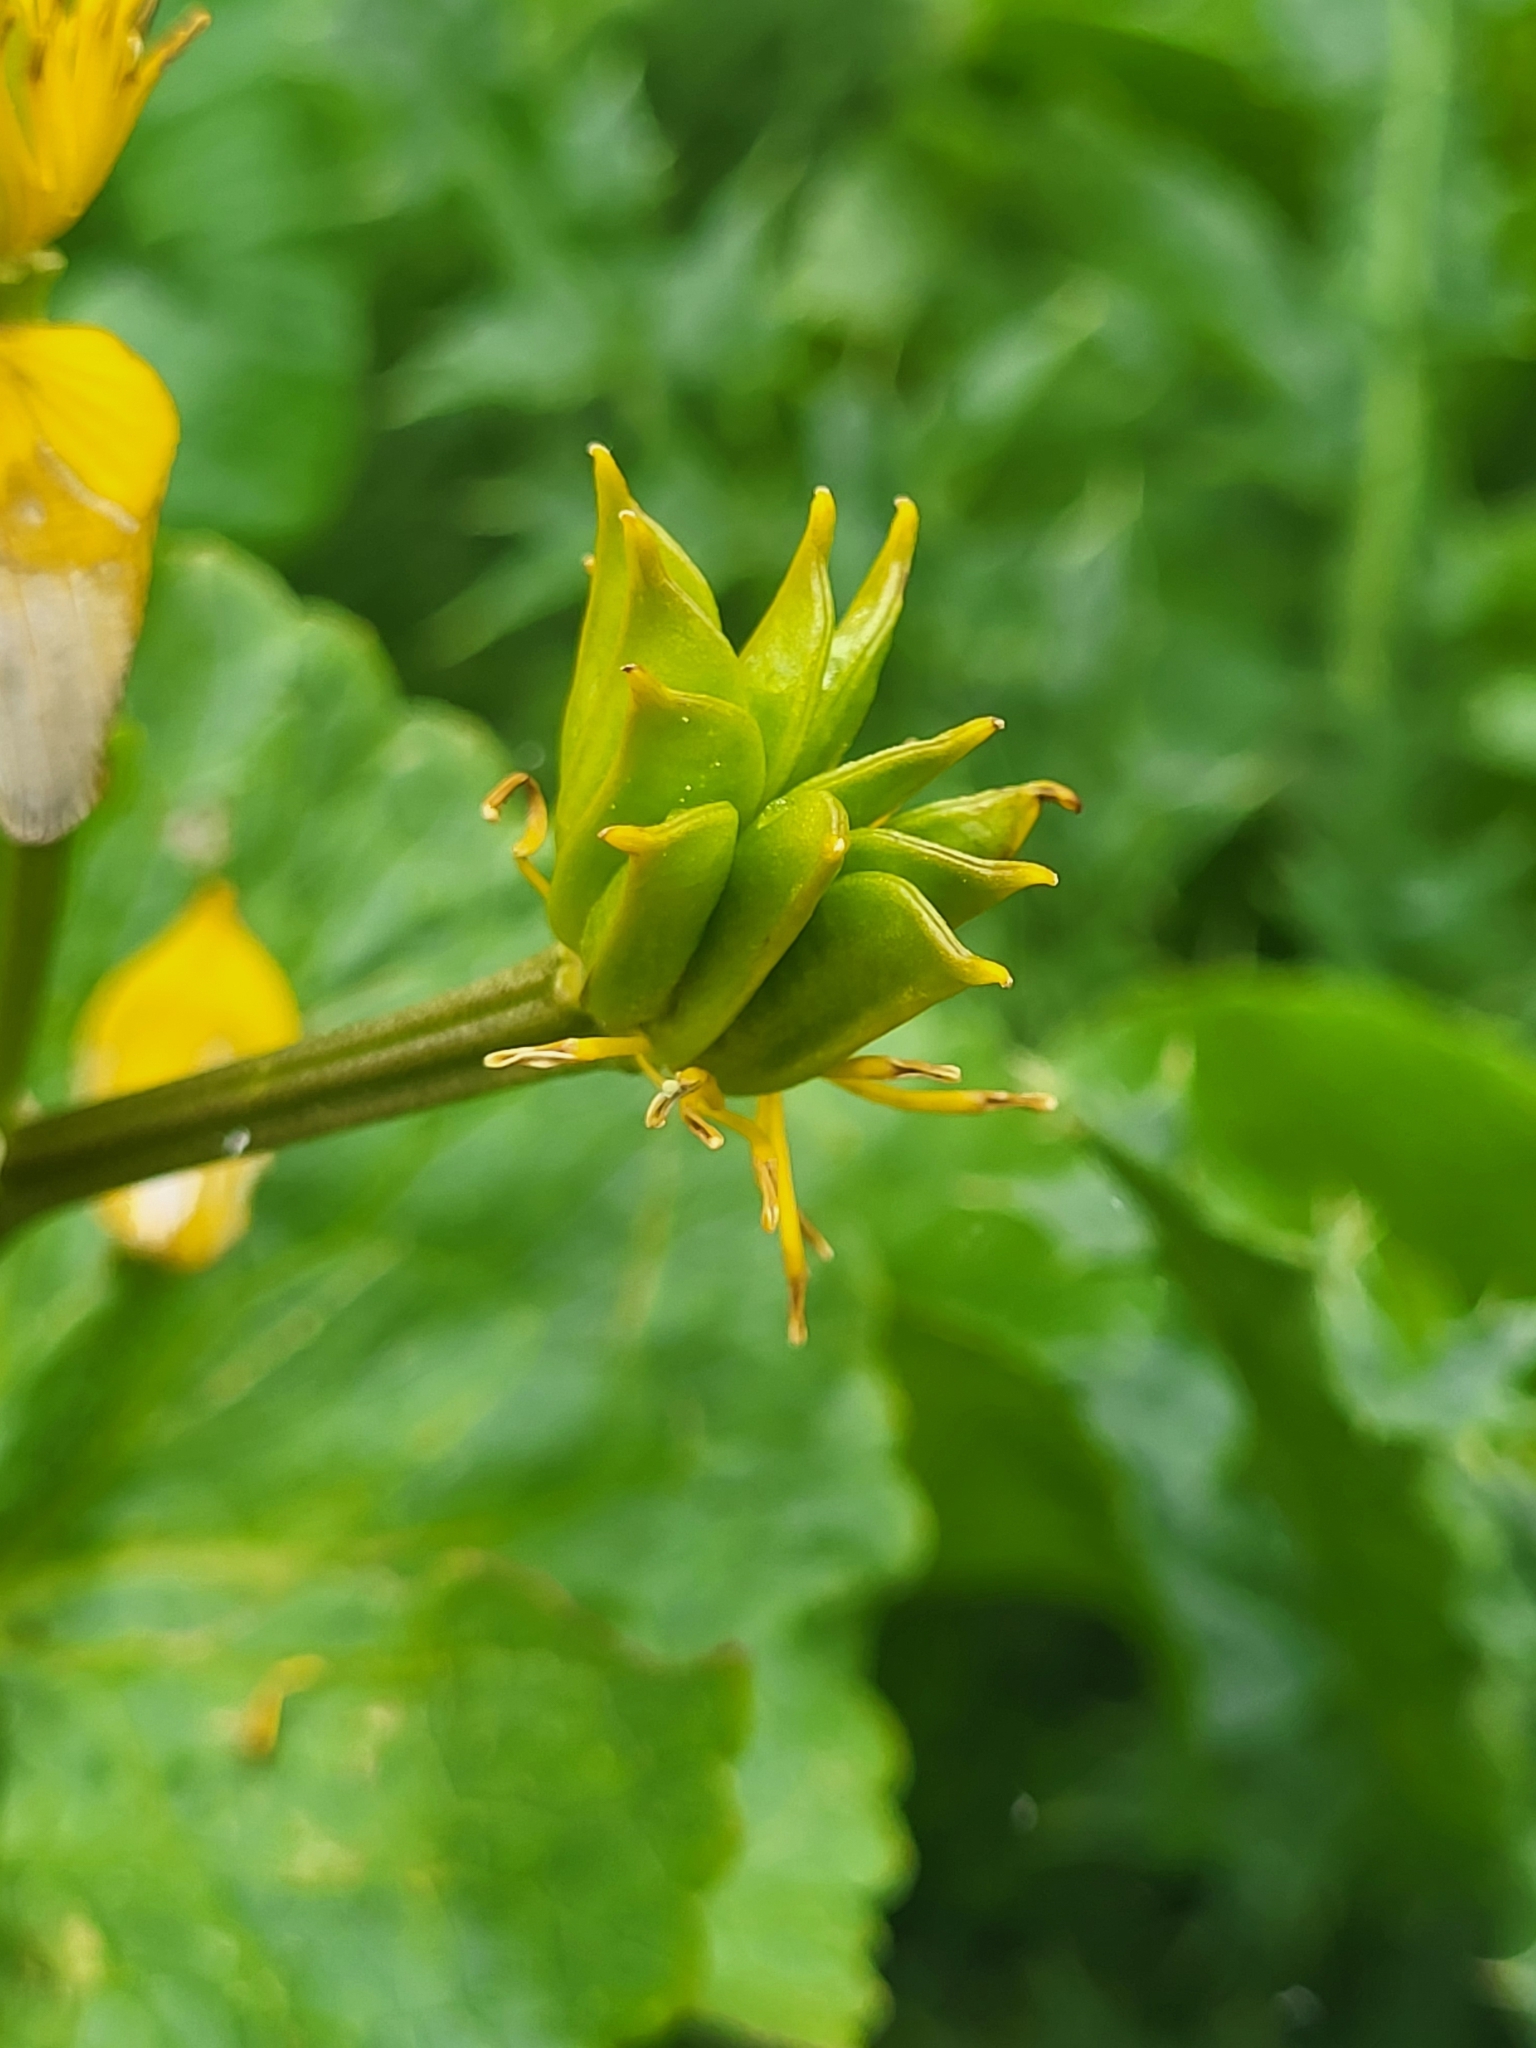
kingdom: Plantae
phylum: Tracheophyta
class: Magnoliopsida
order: Ranunculales
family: Ranunculaceae
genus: Caltha
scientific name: Caltha palustris
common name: Marsh marigold
